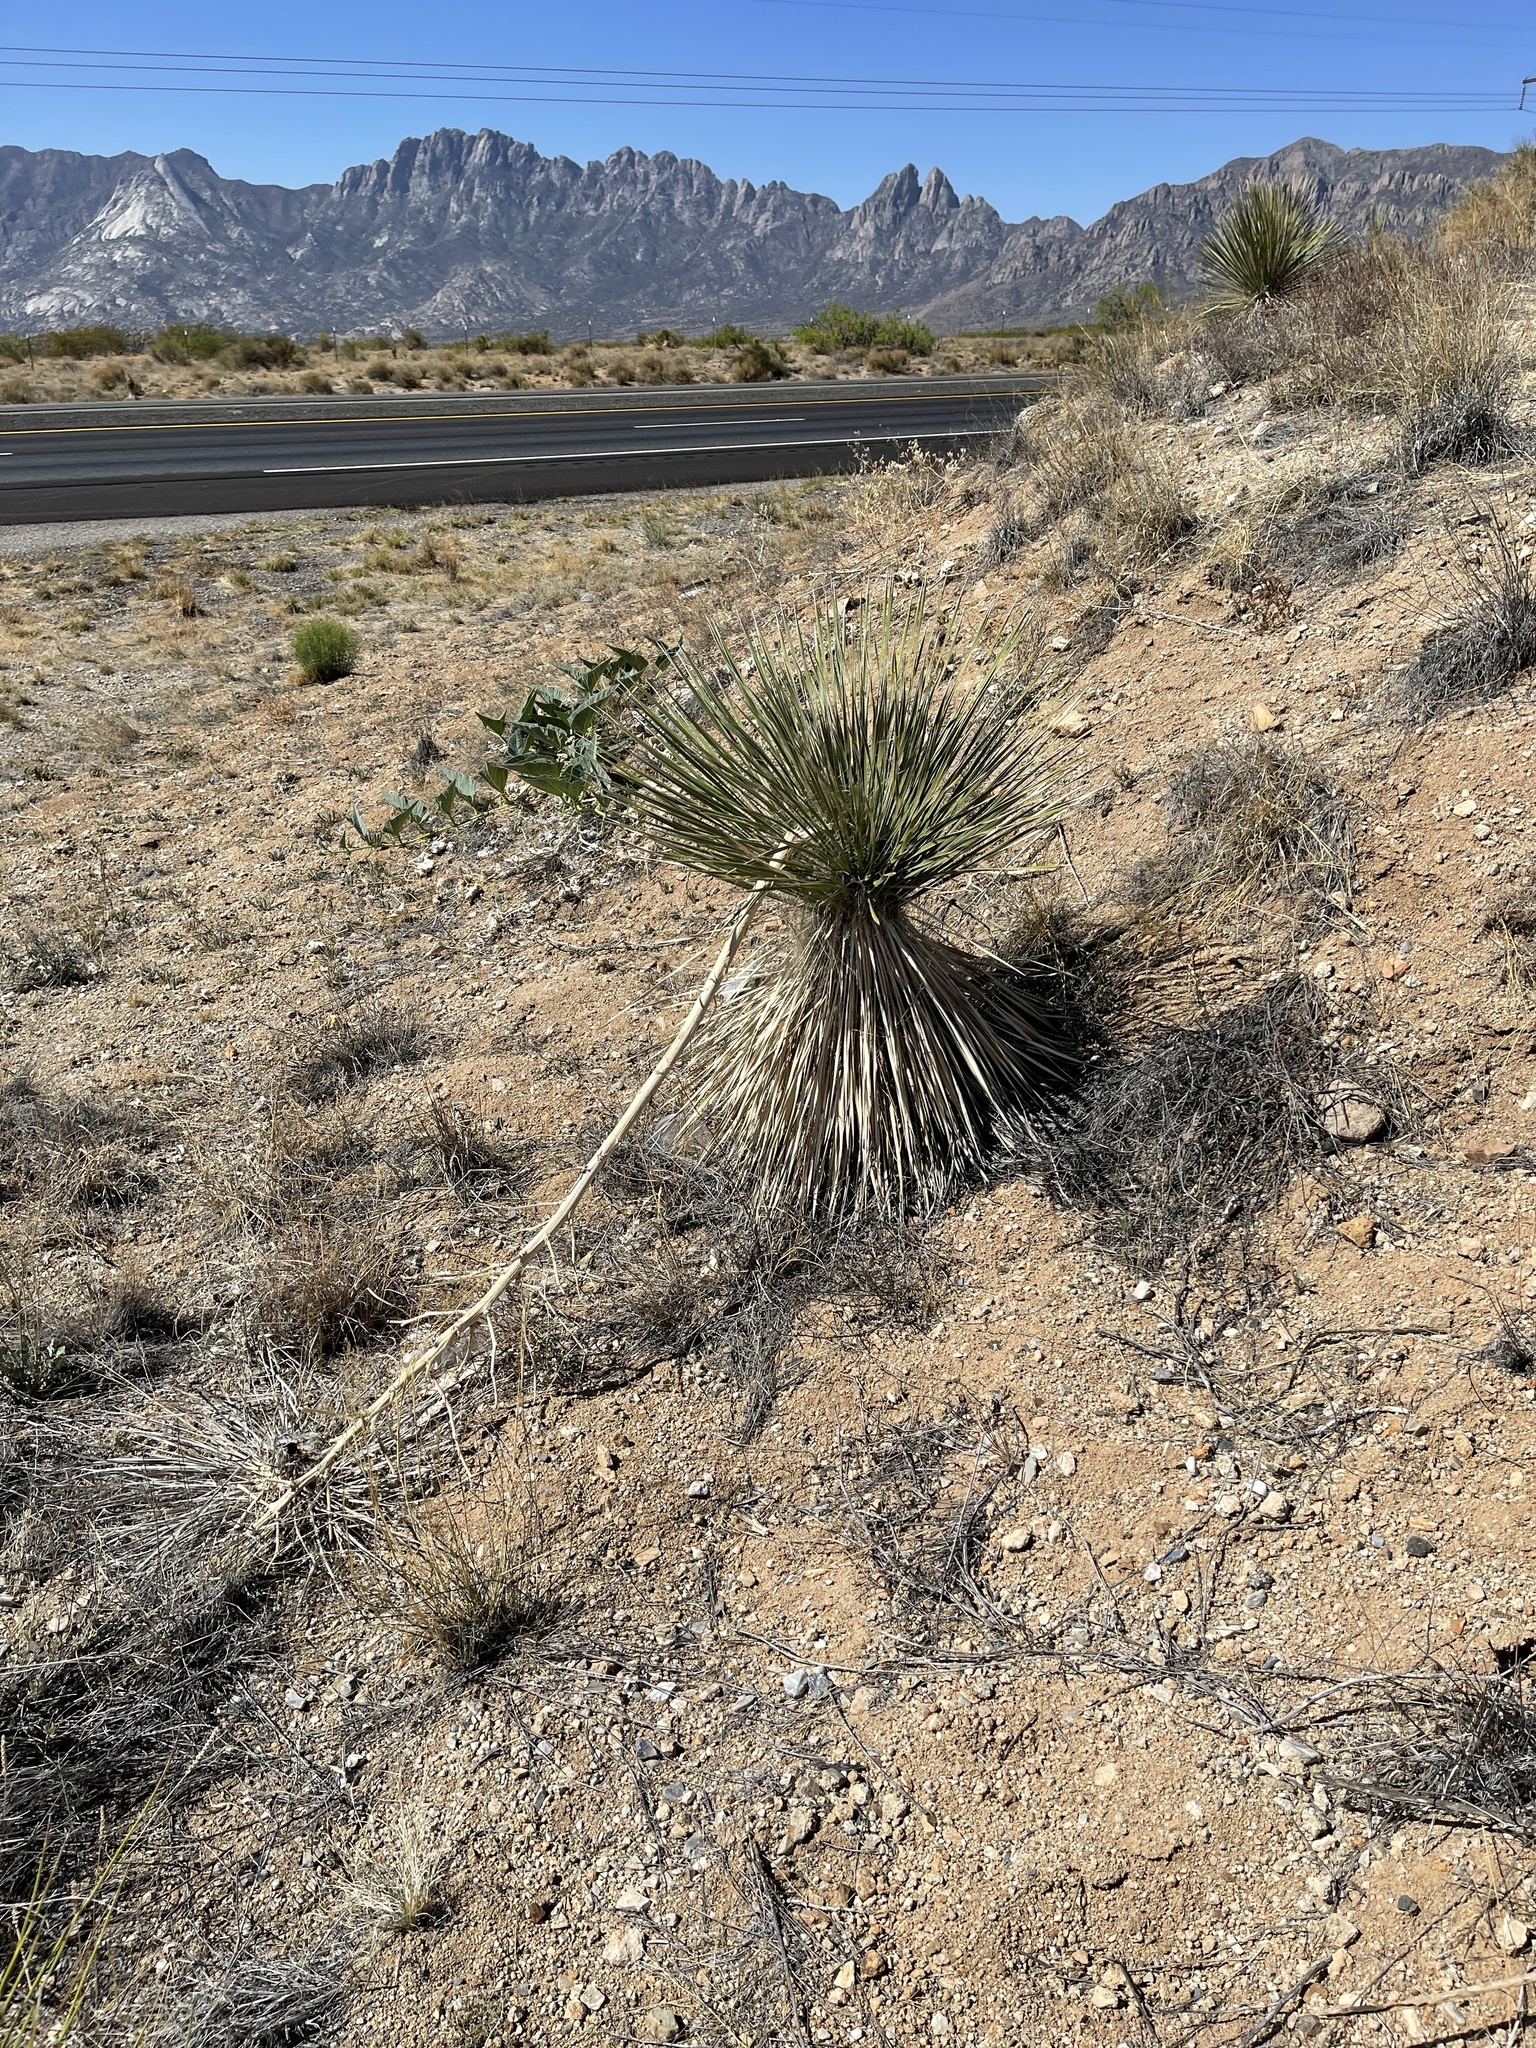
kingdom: Plantae
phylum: Tracheophyta
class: Liliopsida
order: Asparagales
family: Asparagaceae
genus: Yucca
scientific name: Yucca elata
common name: Palmella
